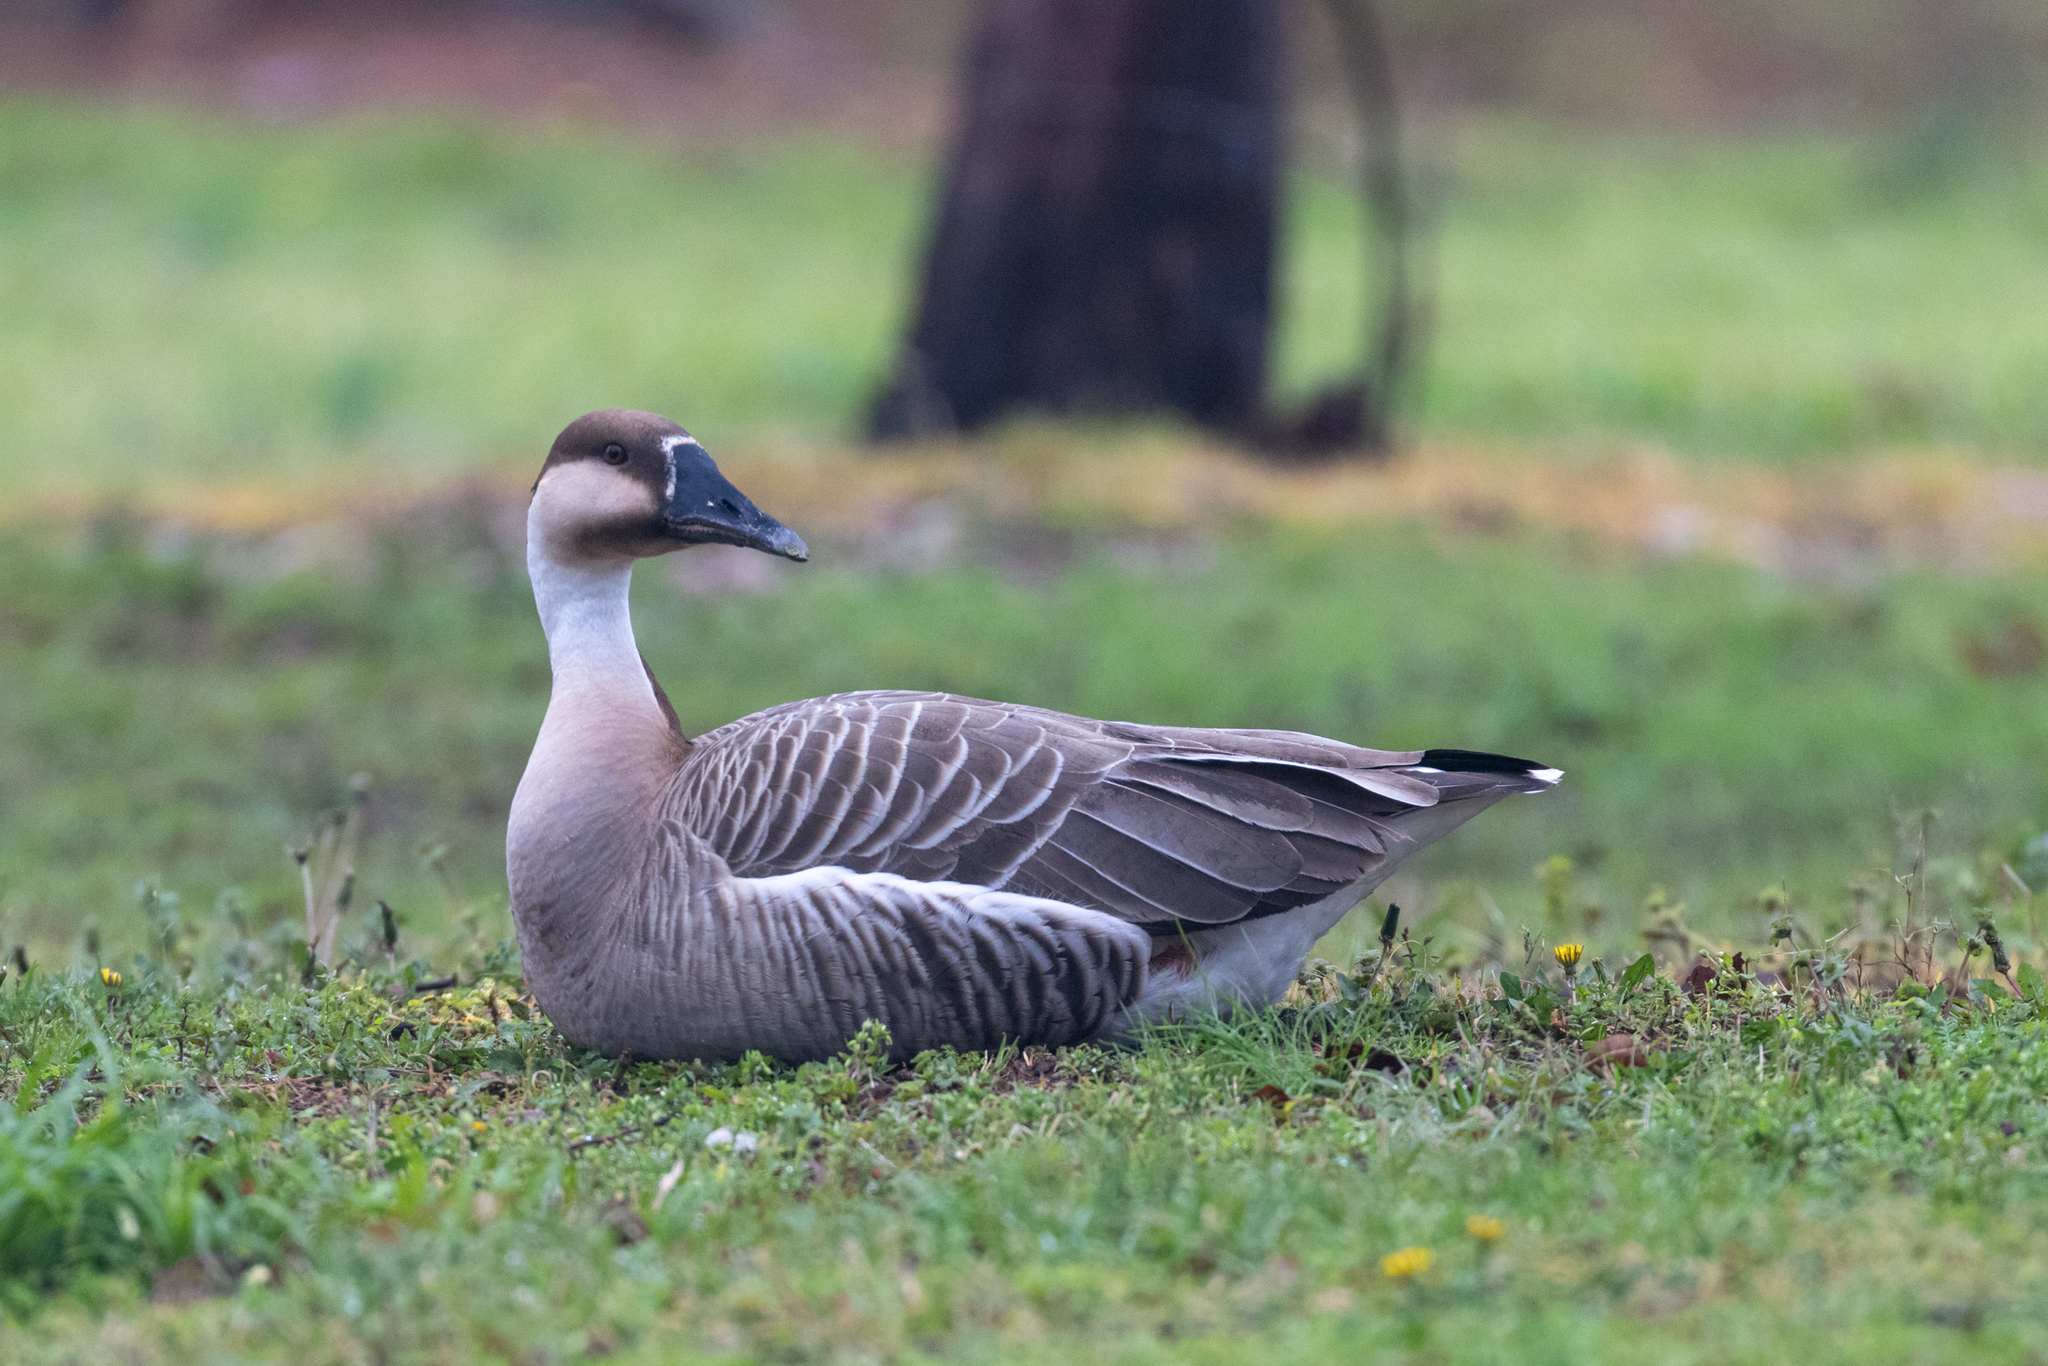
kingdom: Animalia
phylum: Chordata
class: Aves
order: Anseriformes
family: Anatidae
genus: Anser
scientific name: Anser cygnoides
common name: Swan goose
